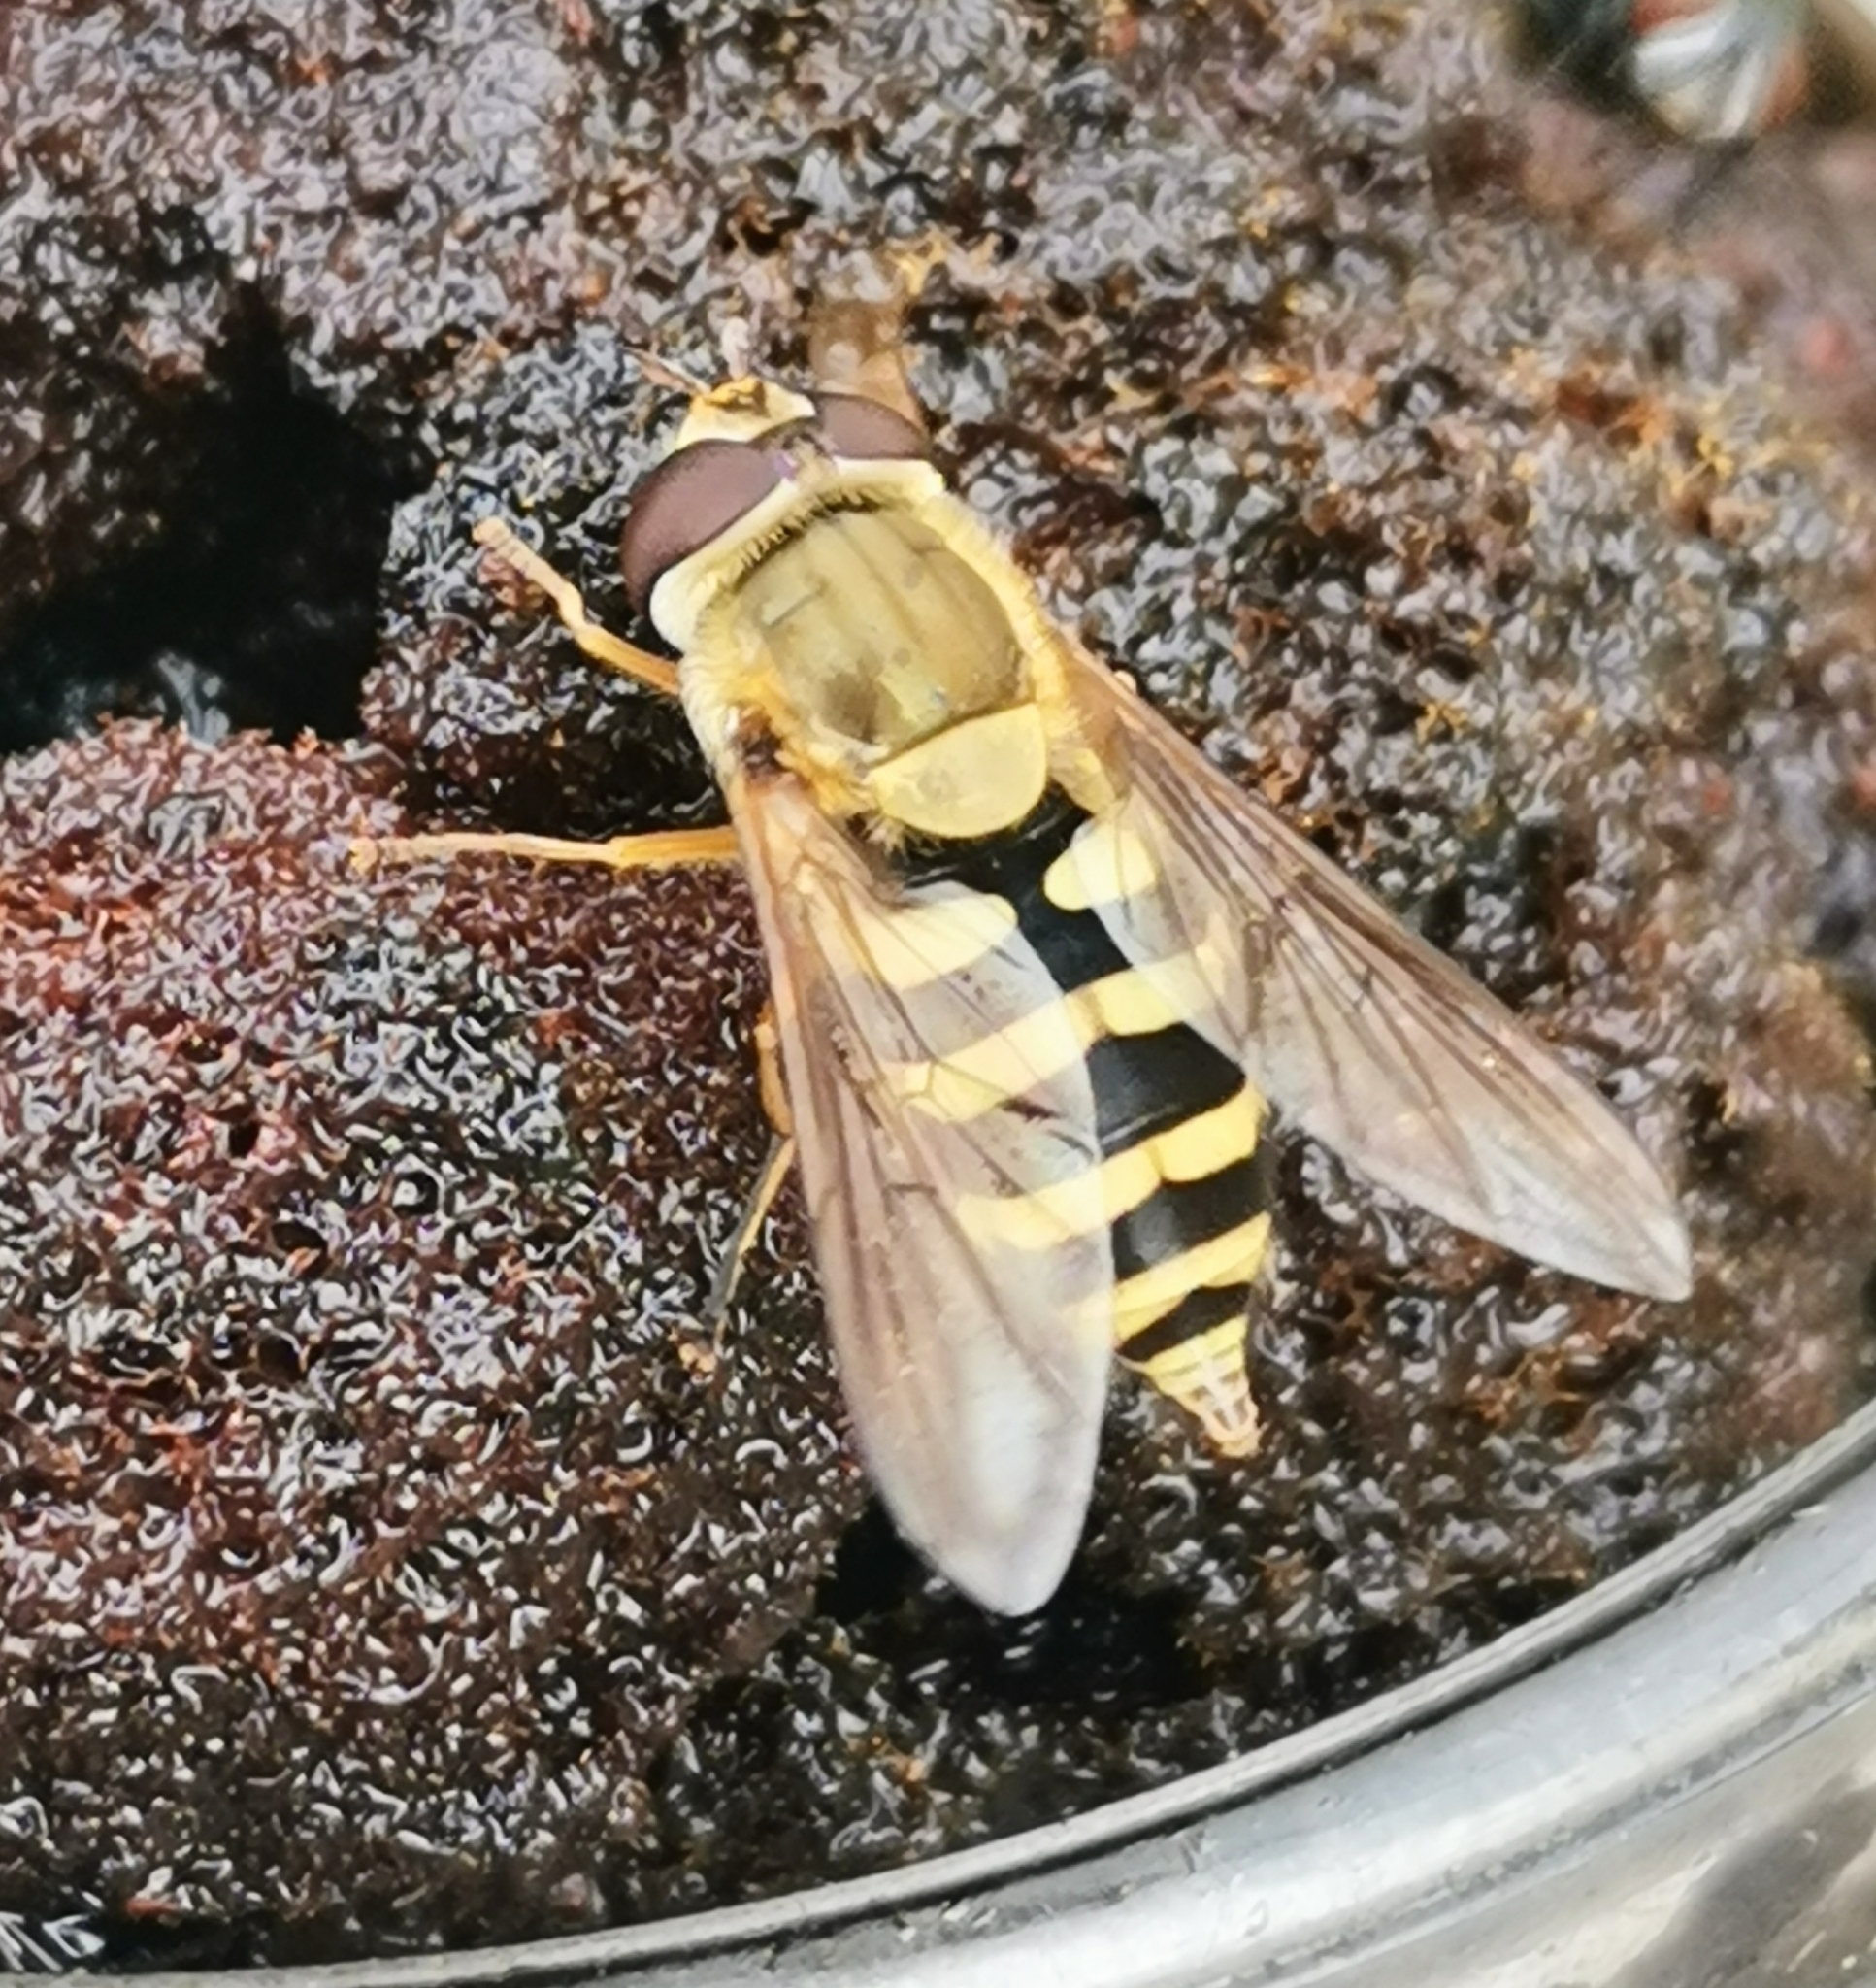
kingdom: Animalia
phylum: Arthropoda
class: Insecta
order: Diptera
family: Syrphidae
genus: Syrphus
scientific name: Syrphus
